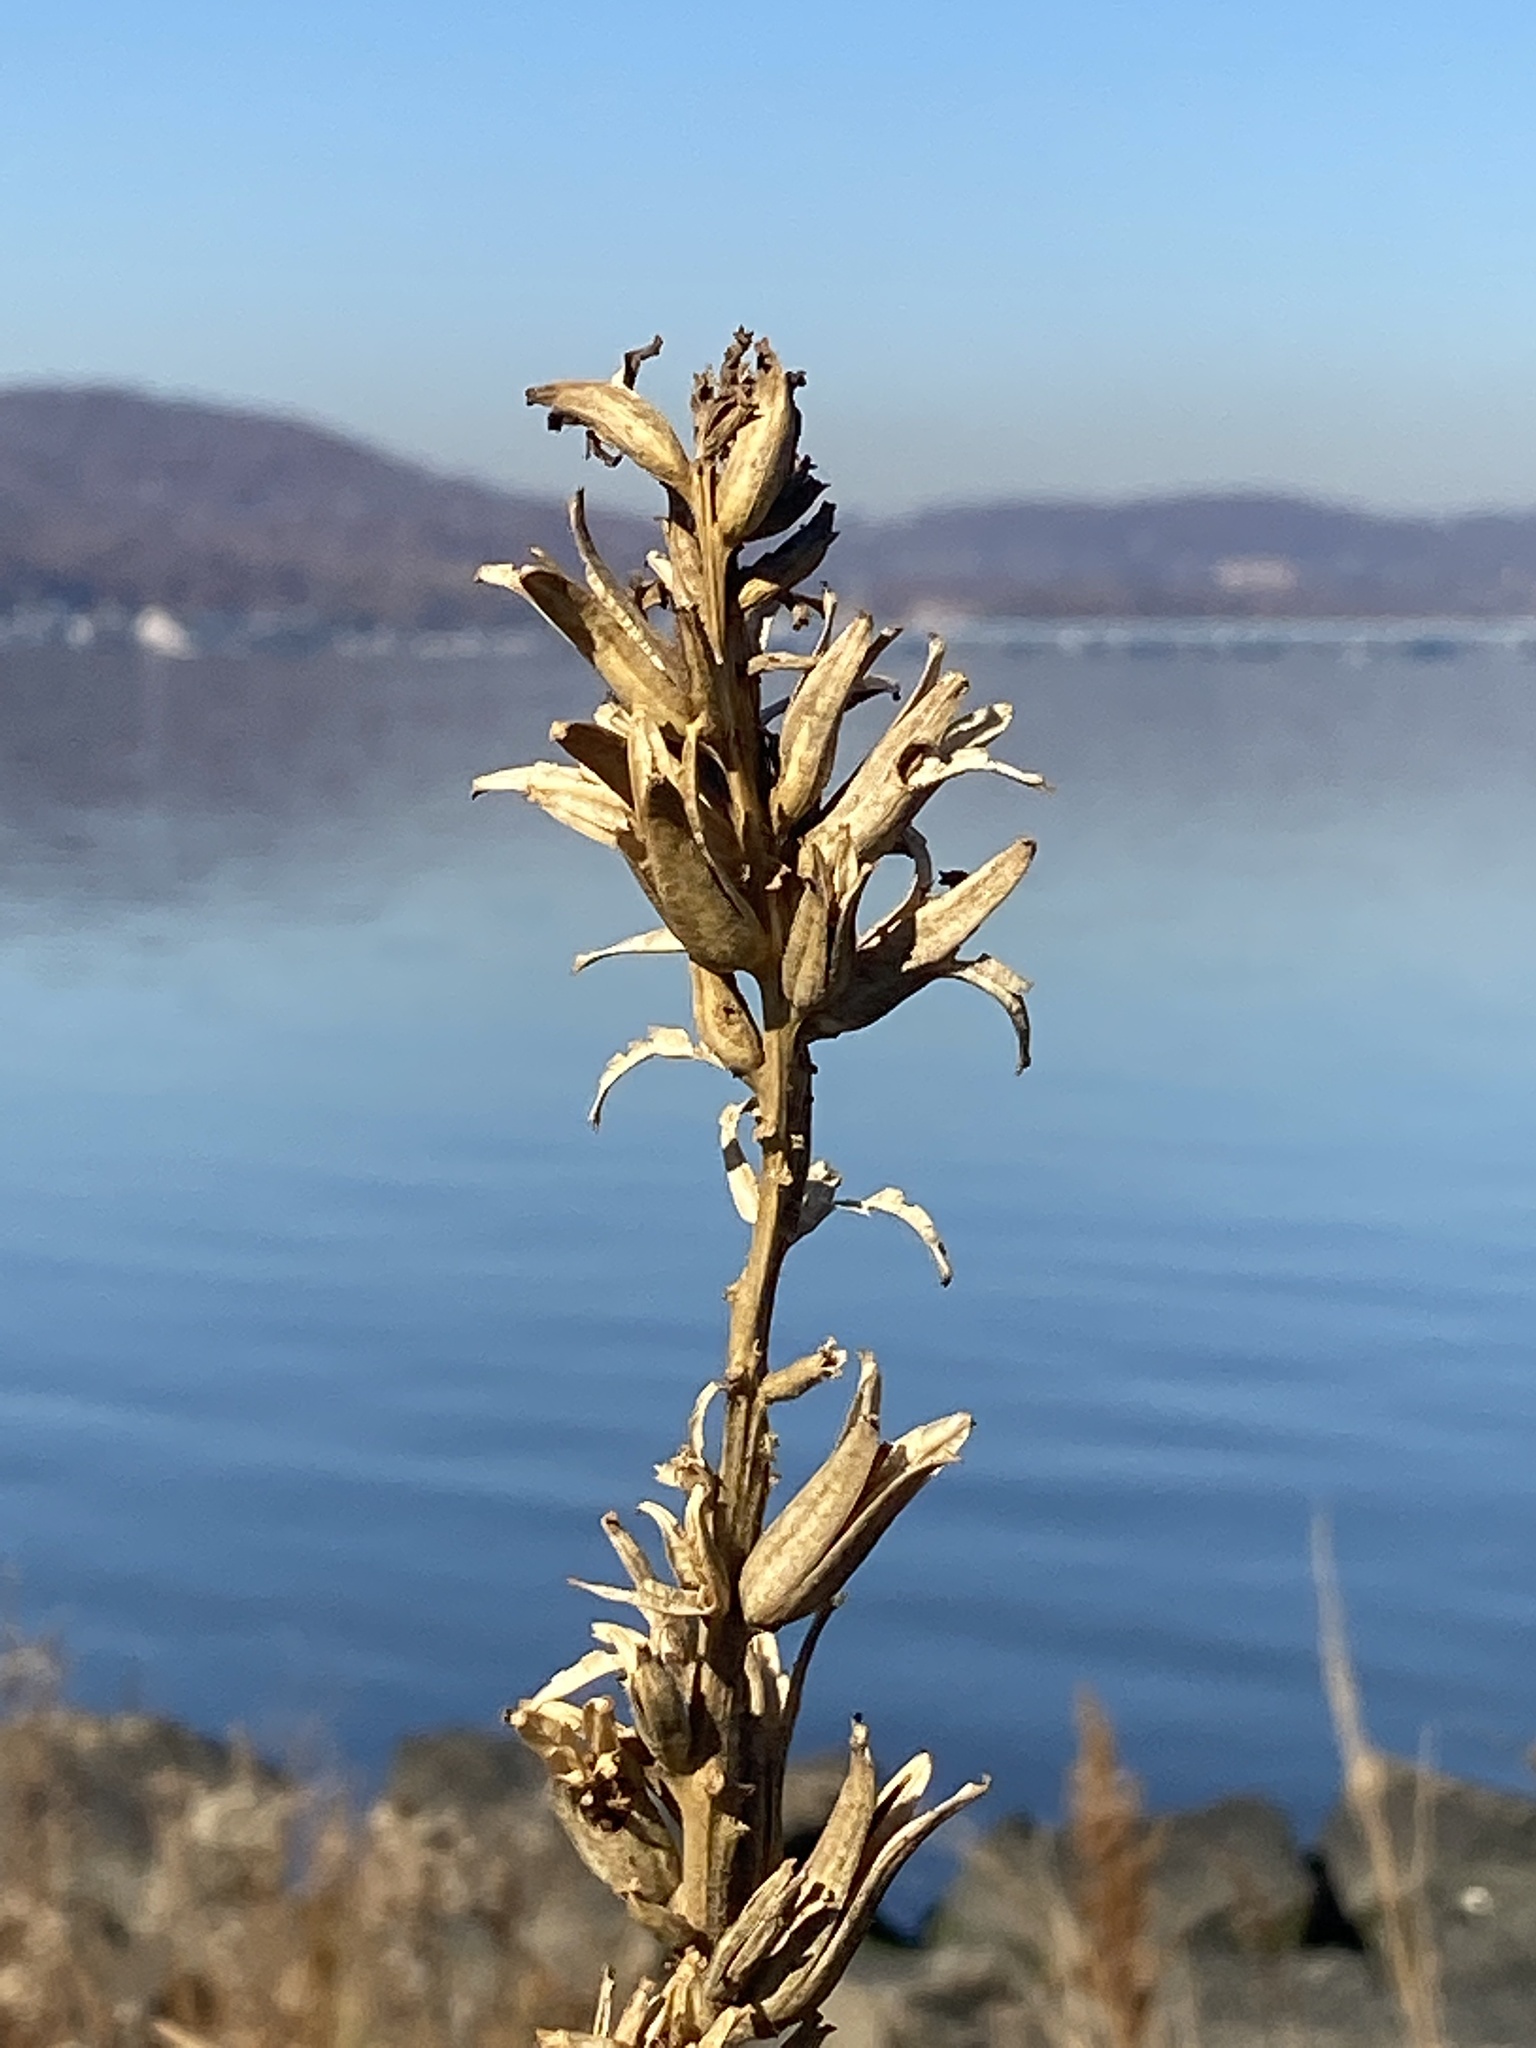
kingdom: Plantae
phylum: Tracheophyta
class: Magnoliopsida
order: Myrtales
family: Onagraceae
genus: Oenothera
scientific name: Oenothera biennis
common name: Common evening-primrose
